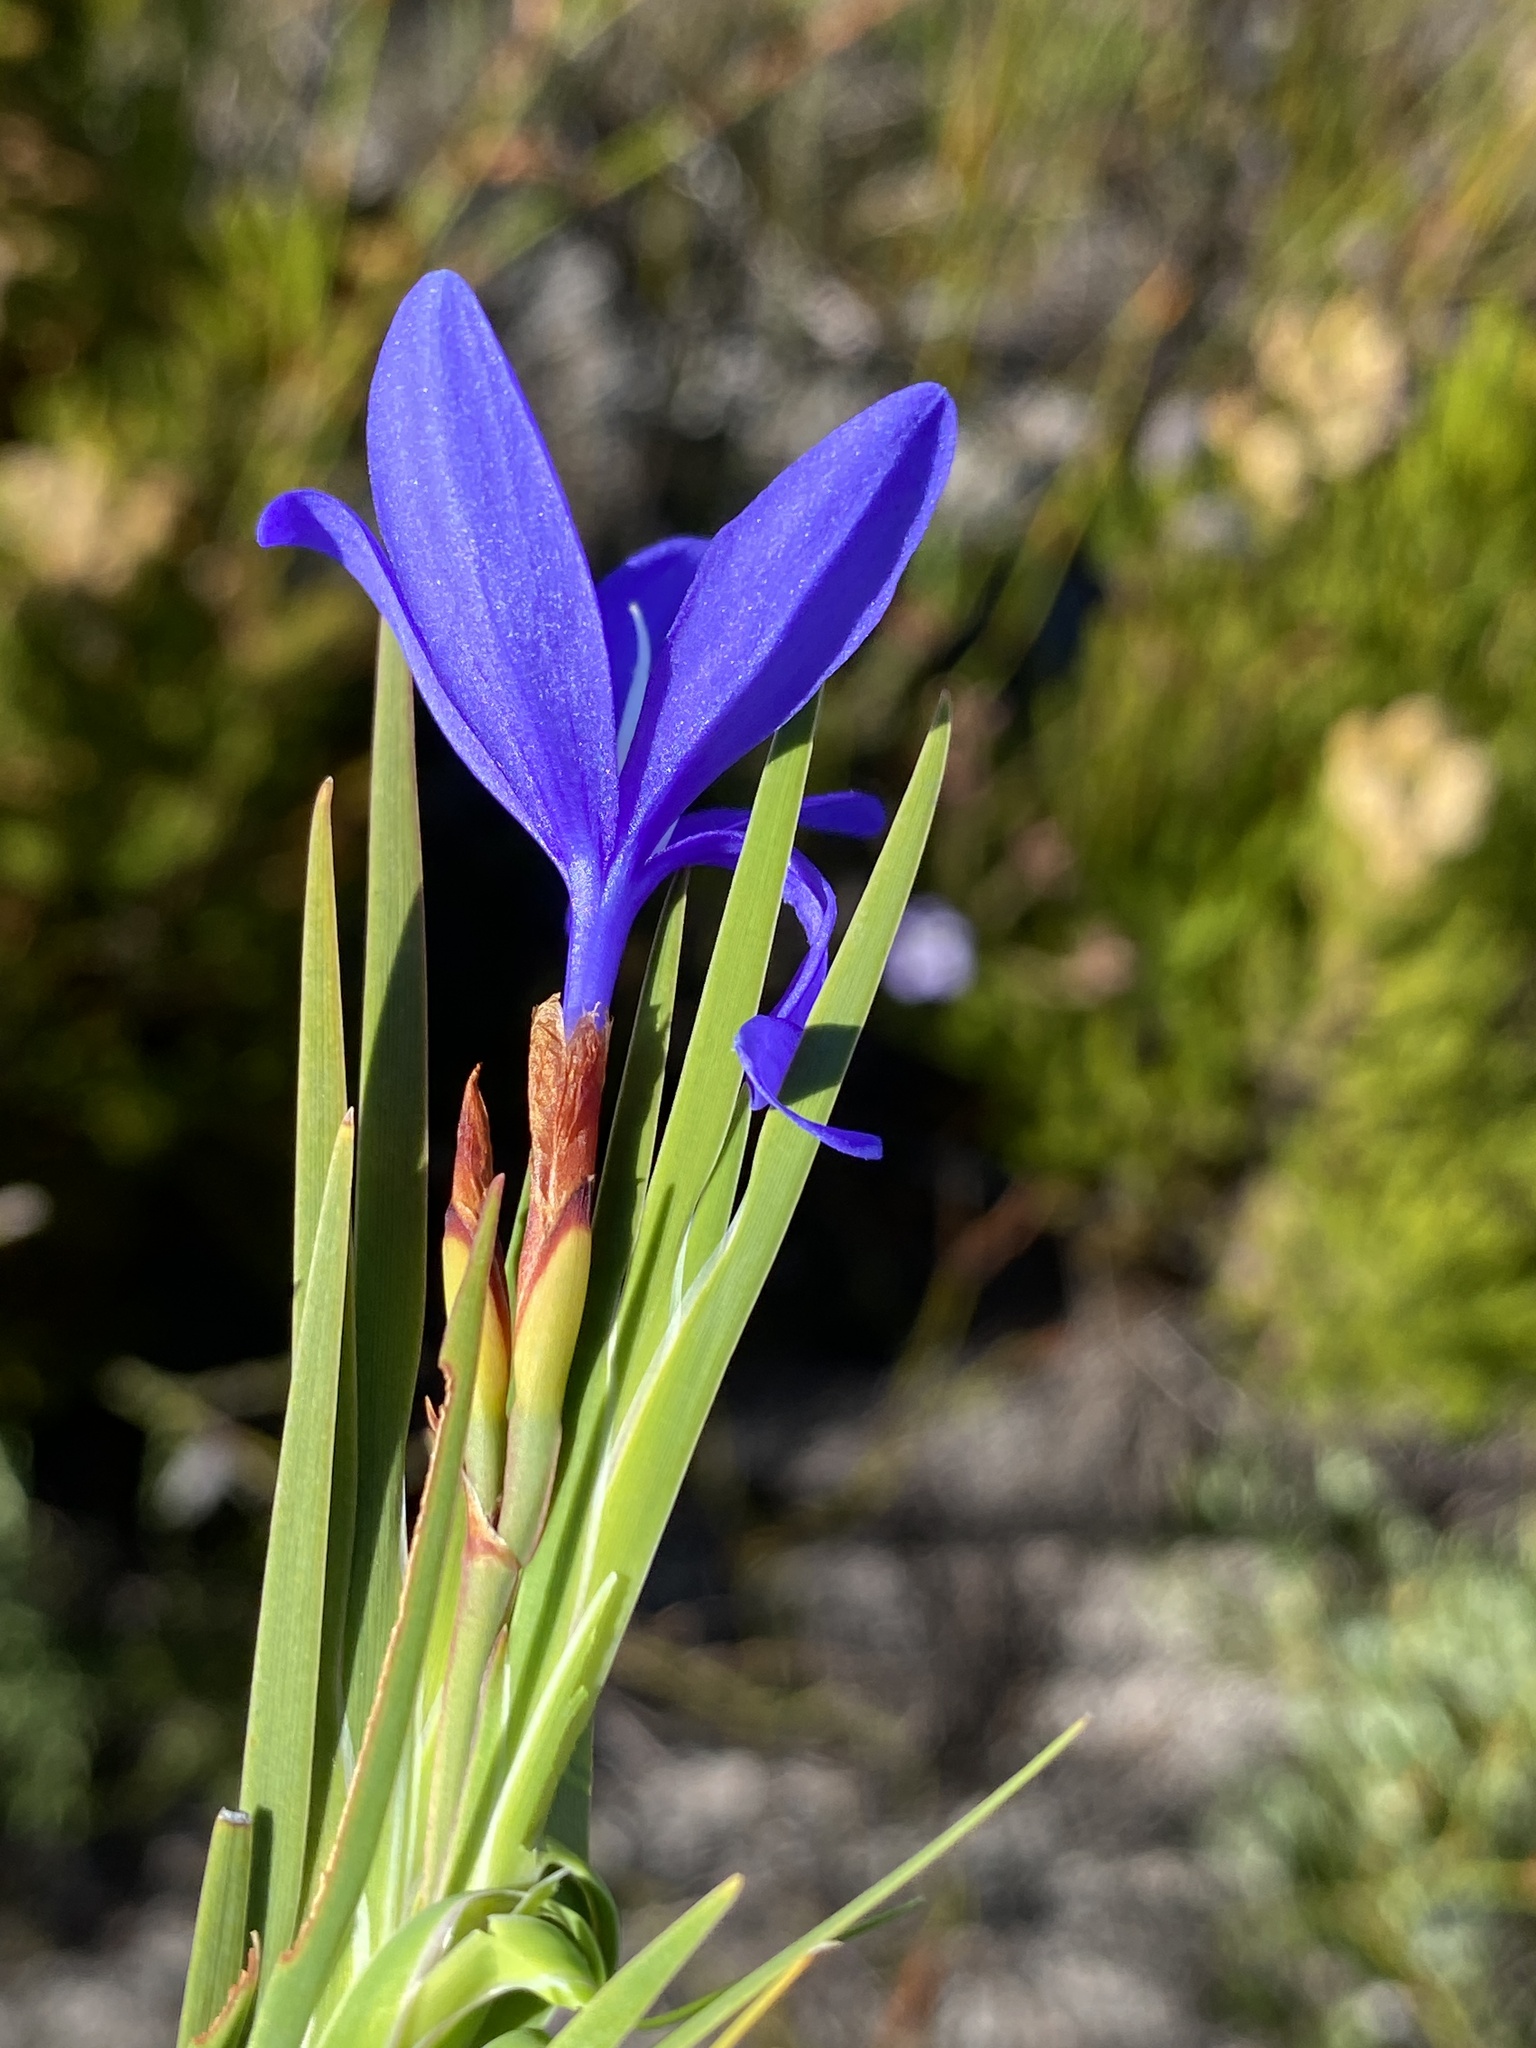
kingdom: Plantae
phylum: Tracheophyta
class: Liliopsida
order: Asparagales
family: Iridaceae
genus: Nivenia
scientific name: Nivenia stokoei
